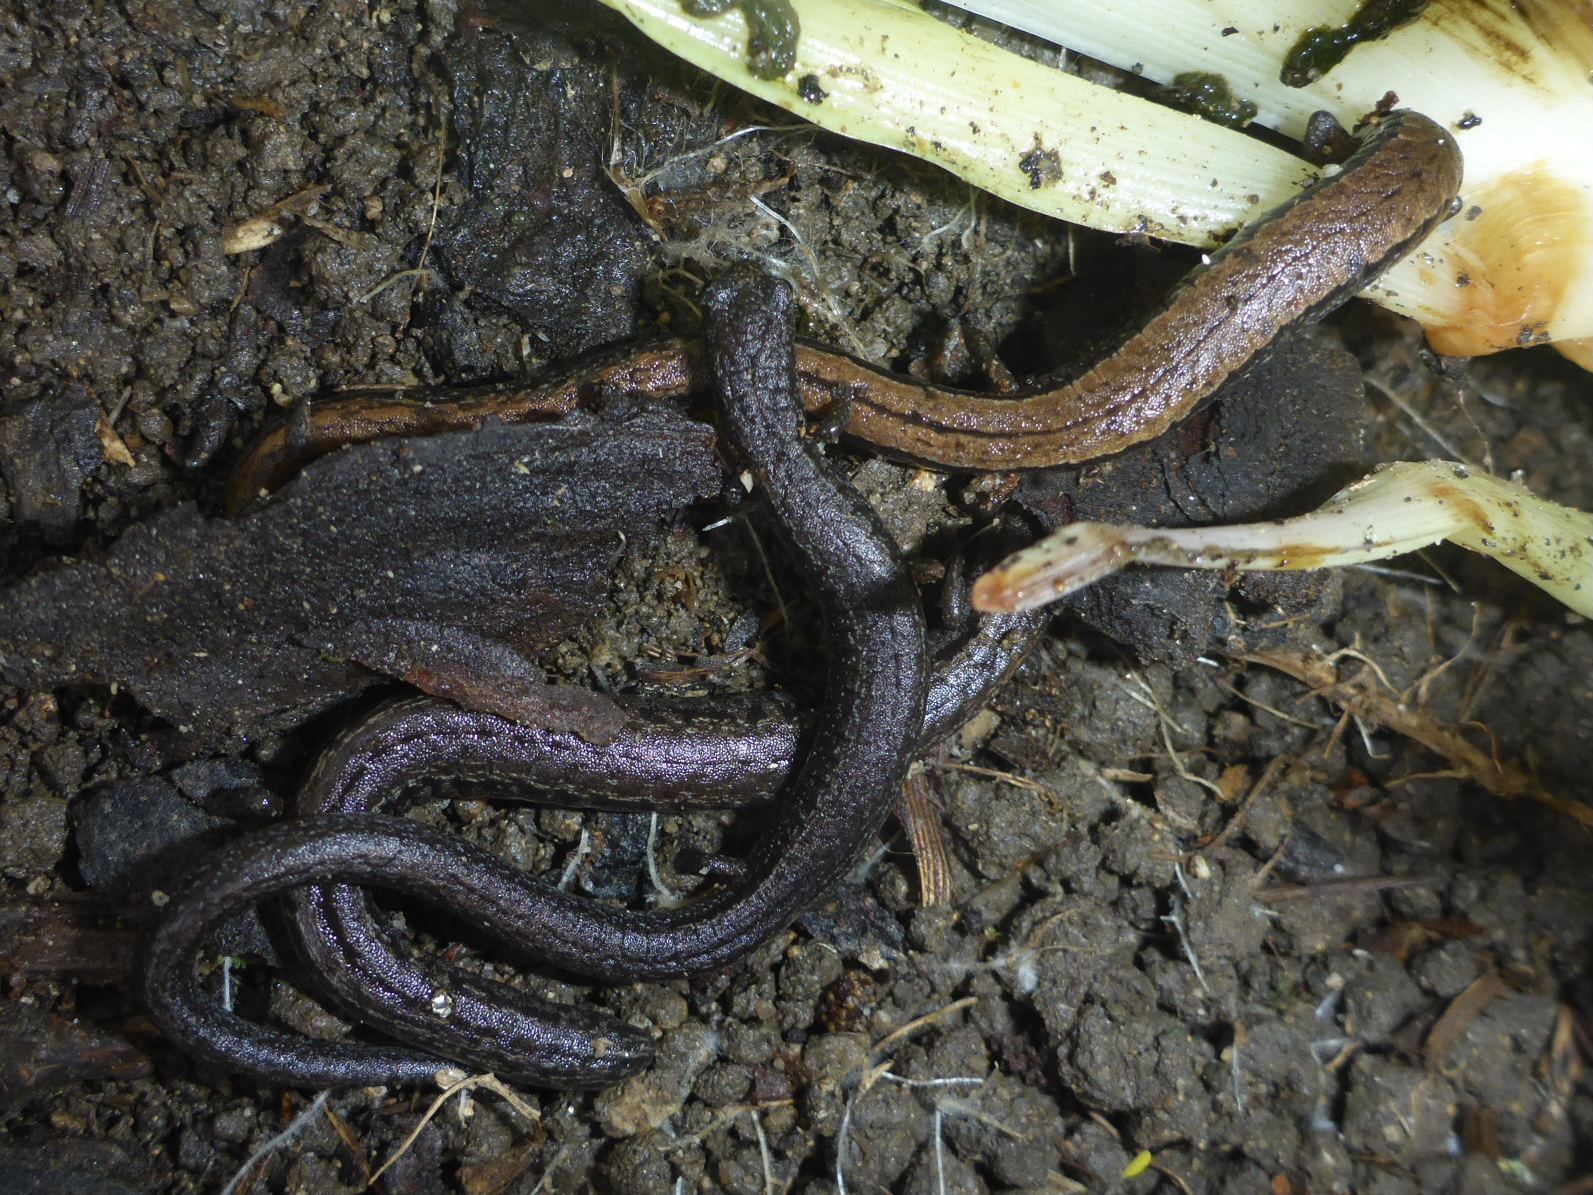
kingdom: Animalia
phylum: Chordata
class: Amphibia
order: Caudata
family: Plethodontidae
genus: Batrachoseps
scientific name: Batrachoseps attenuatus
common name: California slender salamander
